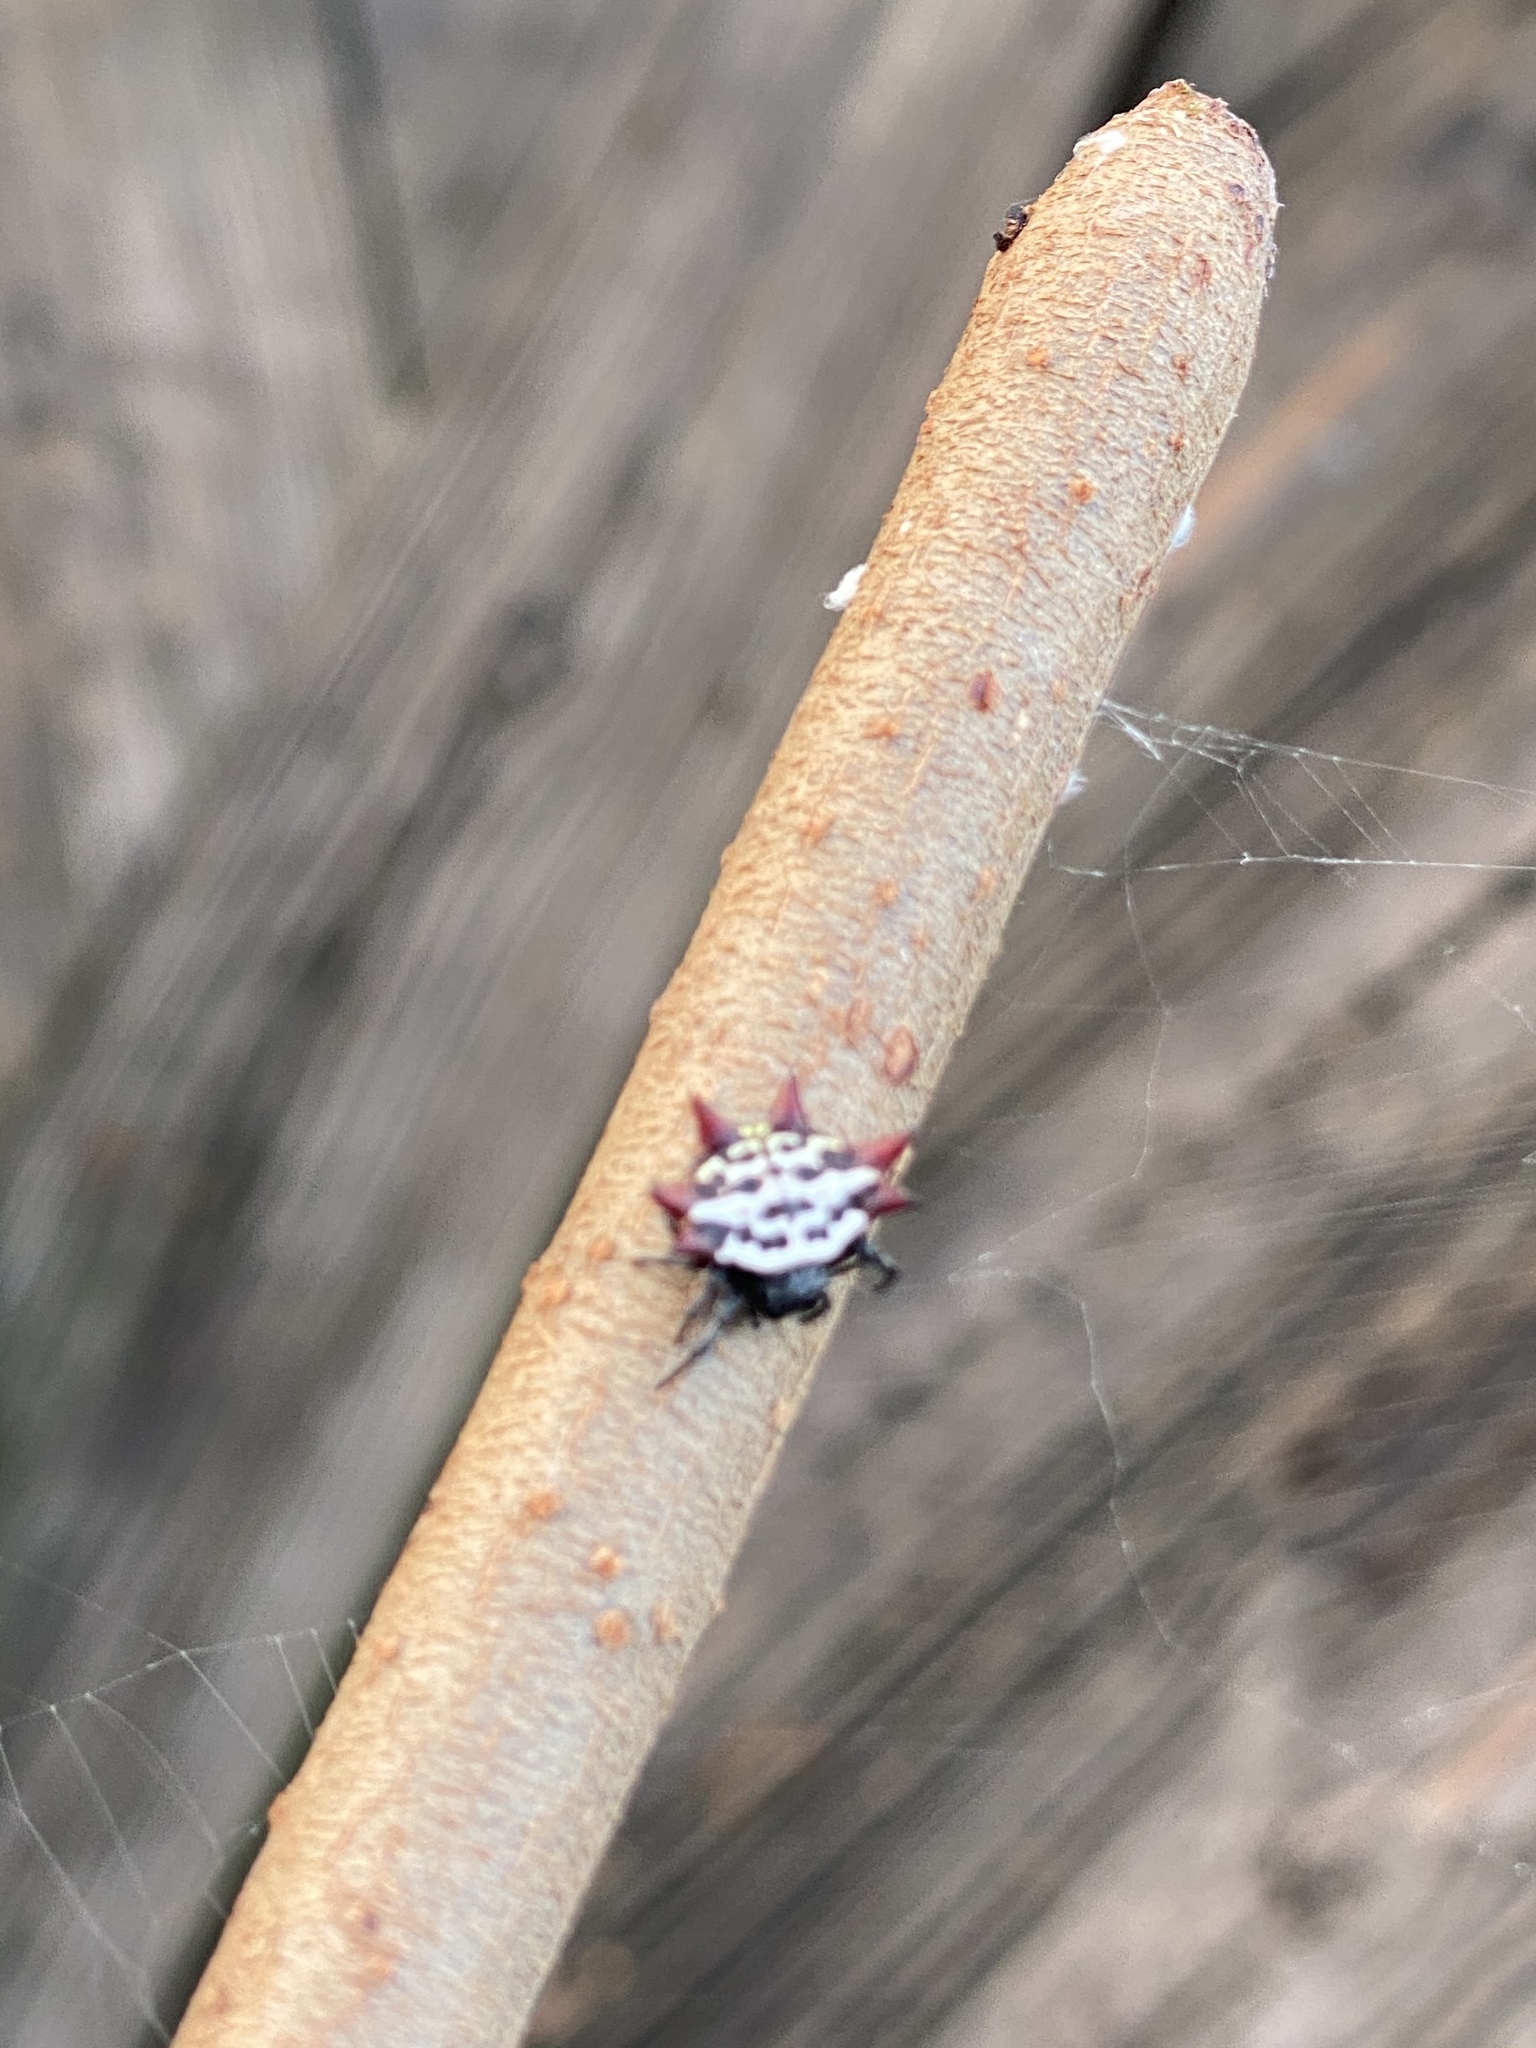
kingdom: Animalia
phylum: Arthropoda
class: Arachnida
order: Araneae
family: Araneidae
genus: Gasteracantha
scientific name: Gasteracantha cancriformis
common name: Orb weavers
